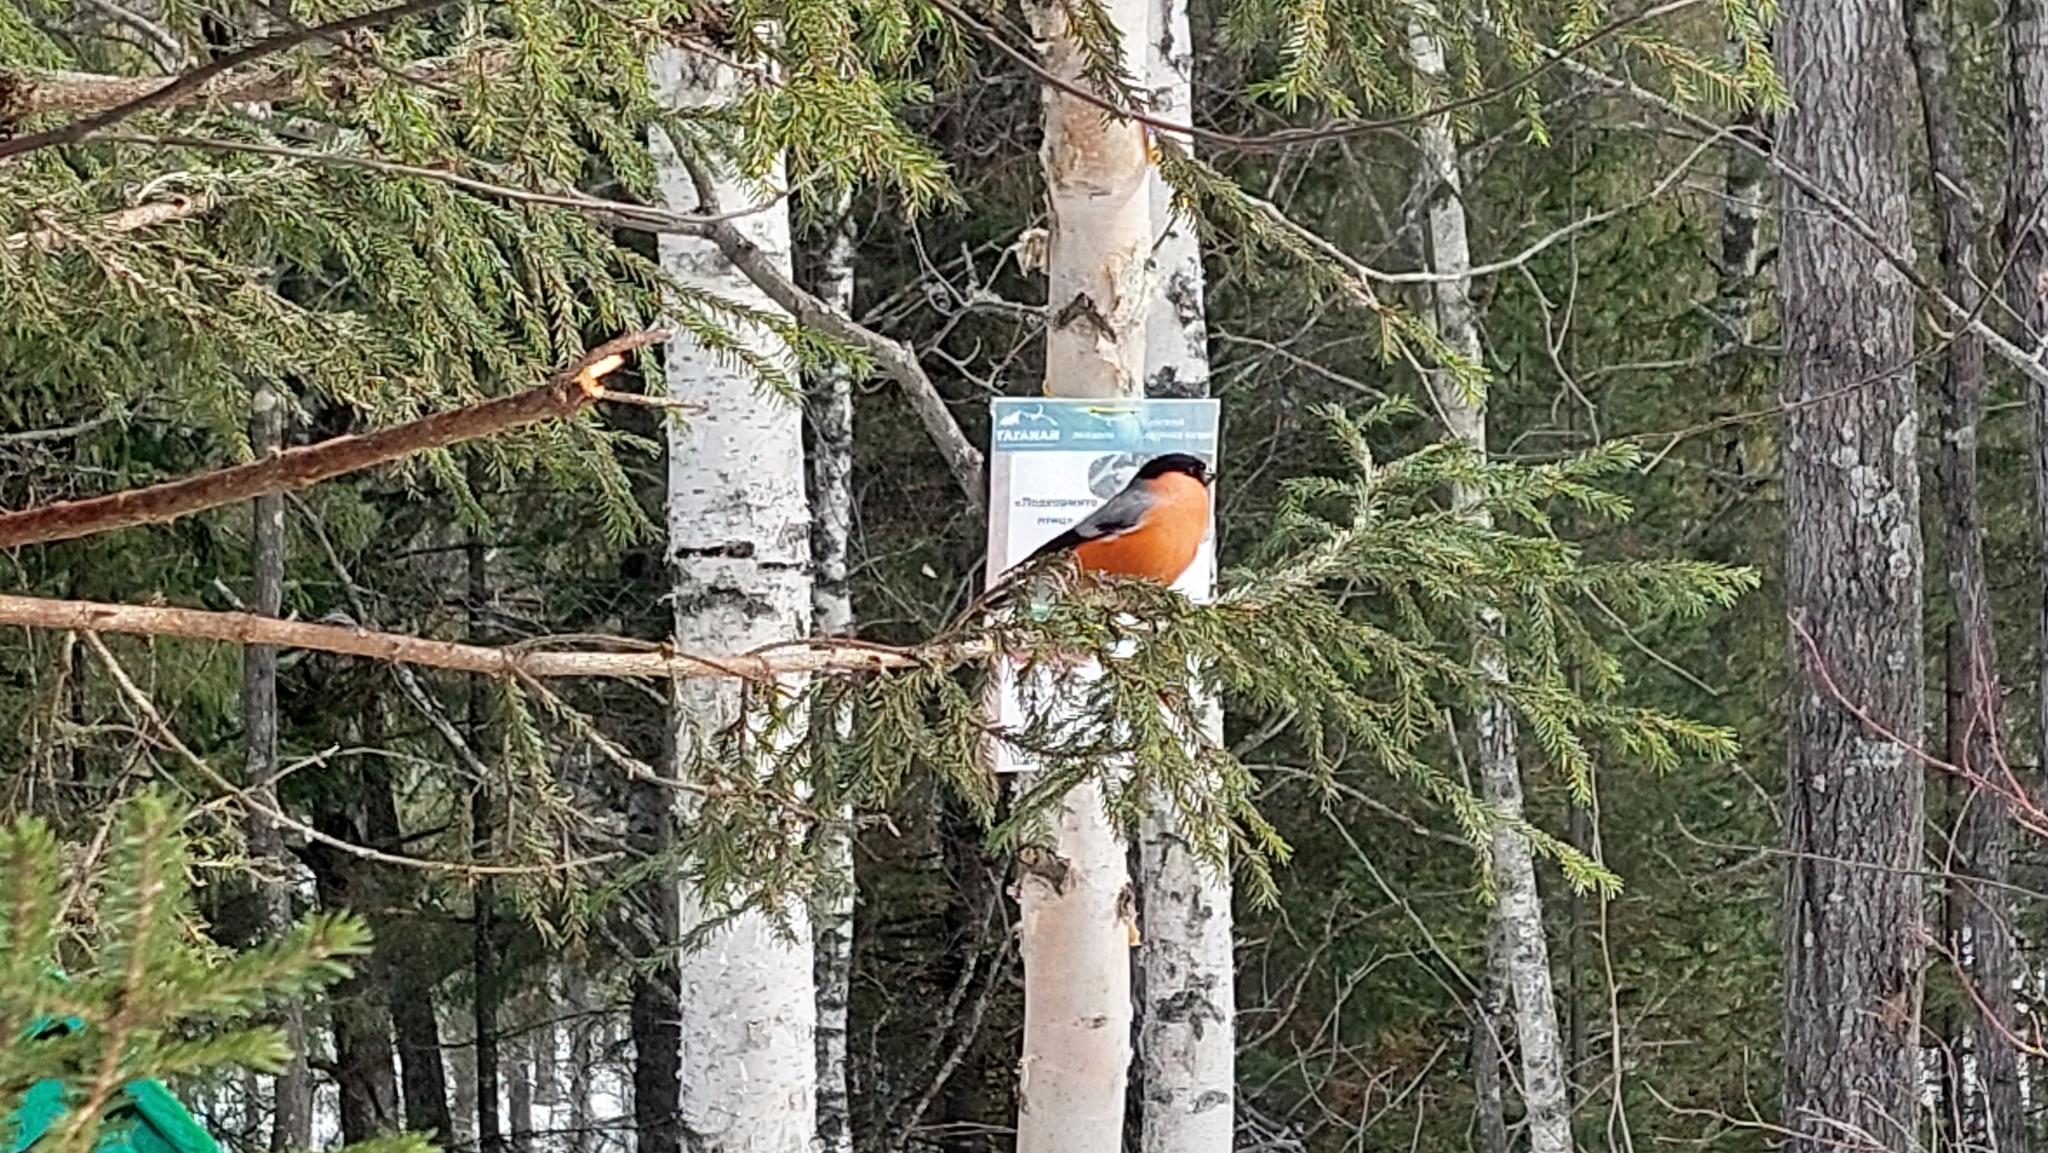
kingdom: Animalia
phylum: Chordata
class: Aves
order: Passeriformes
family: Fringillidae
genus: Pyrrhula
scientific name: Pyrrhula pyrrhula
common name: Eurasian bullfinch
